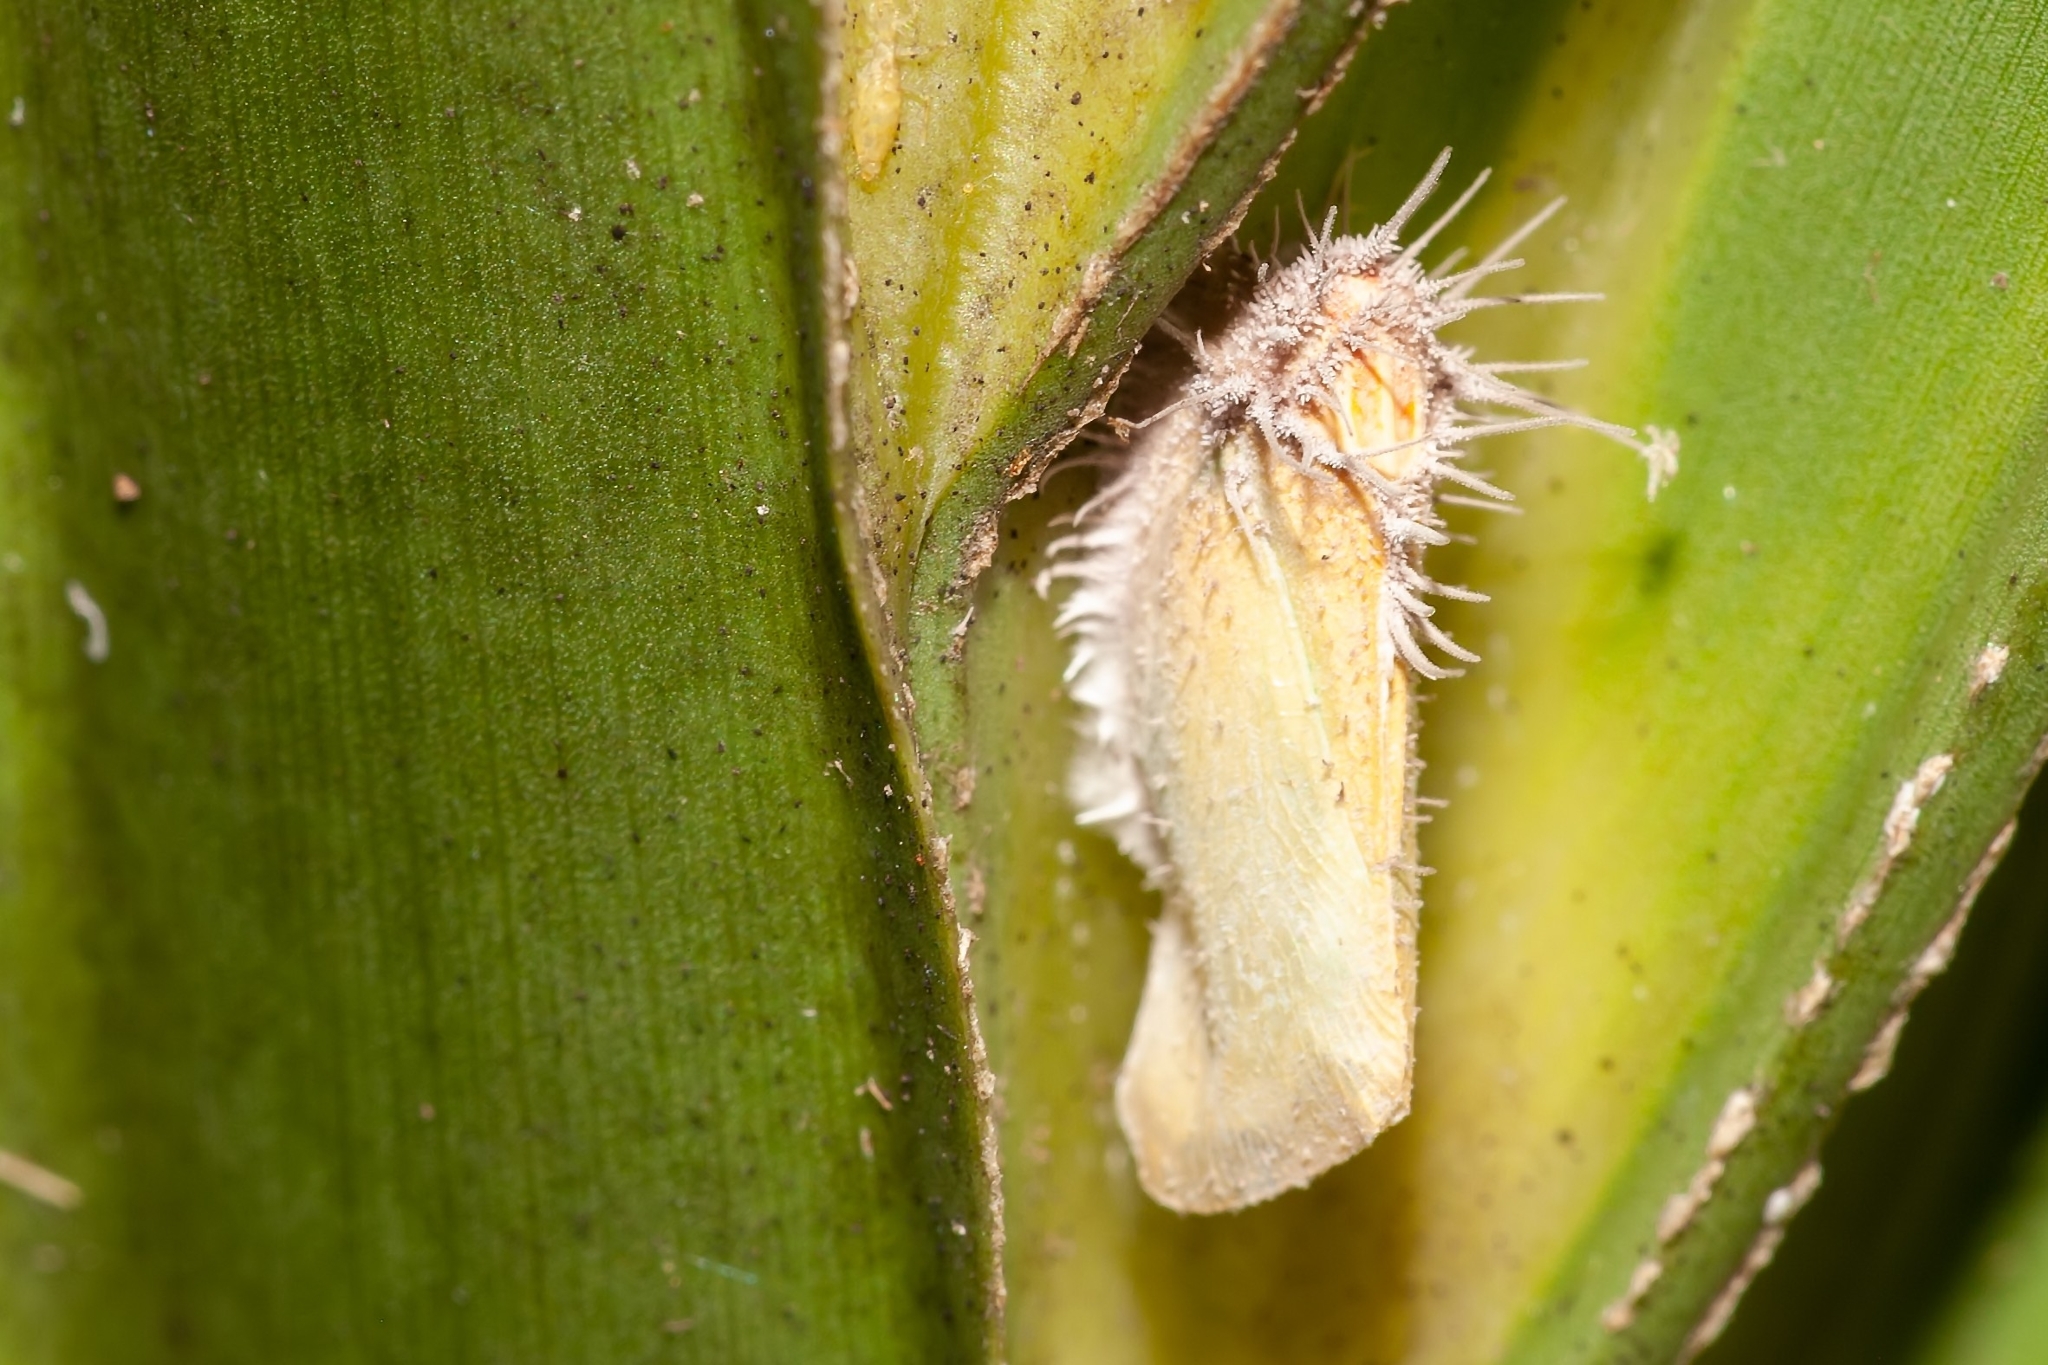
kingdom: Fungi
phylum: Ascomycota
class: Sordariomycetes
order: Hypocreales
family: Ophiocordycipitaceae
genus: Hirsutella
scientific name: Hirsutella citriformis
